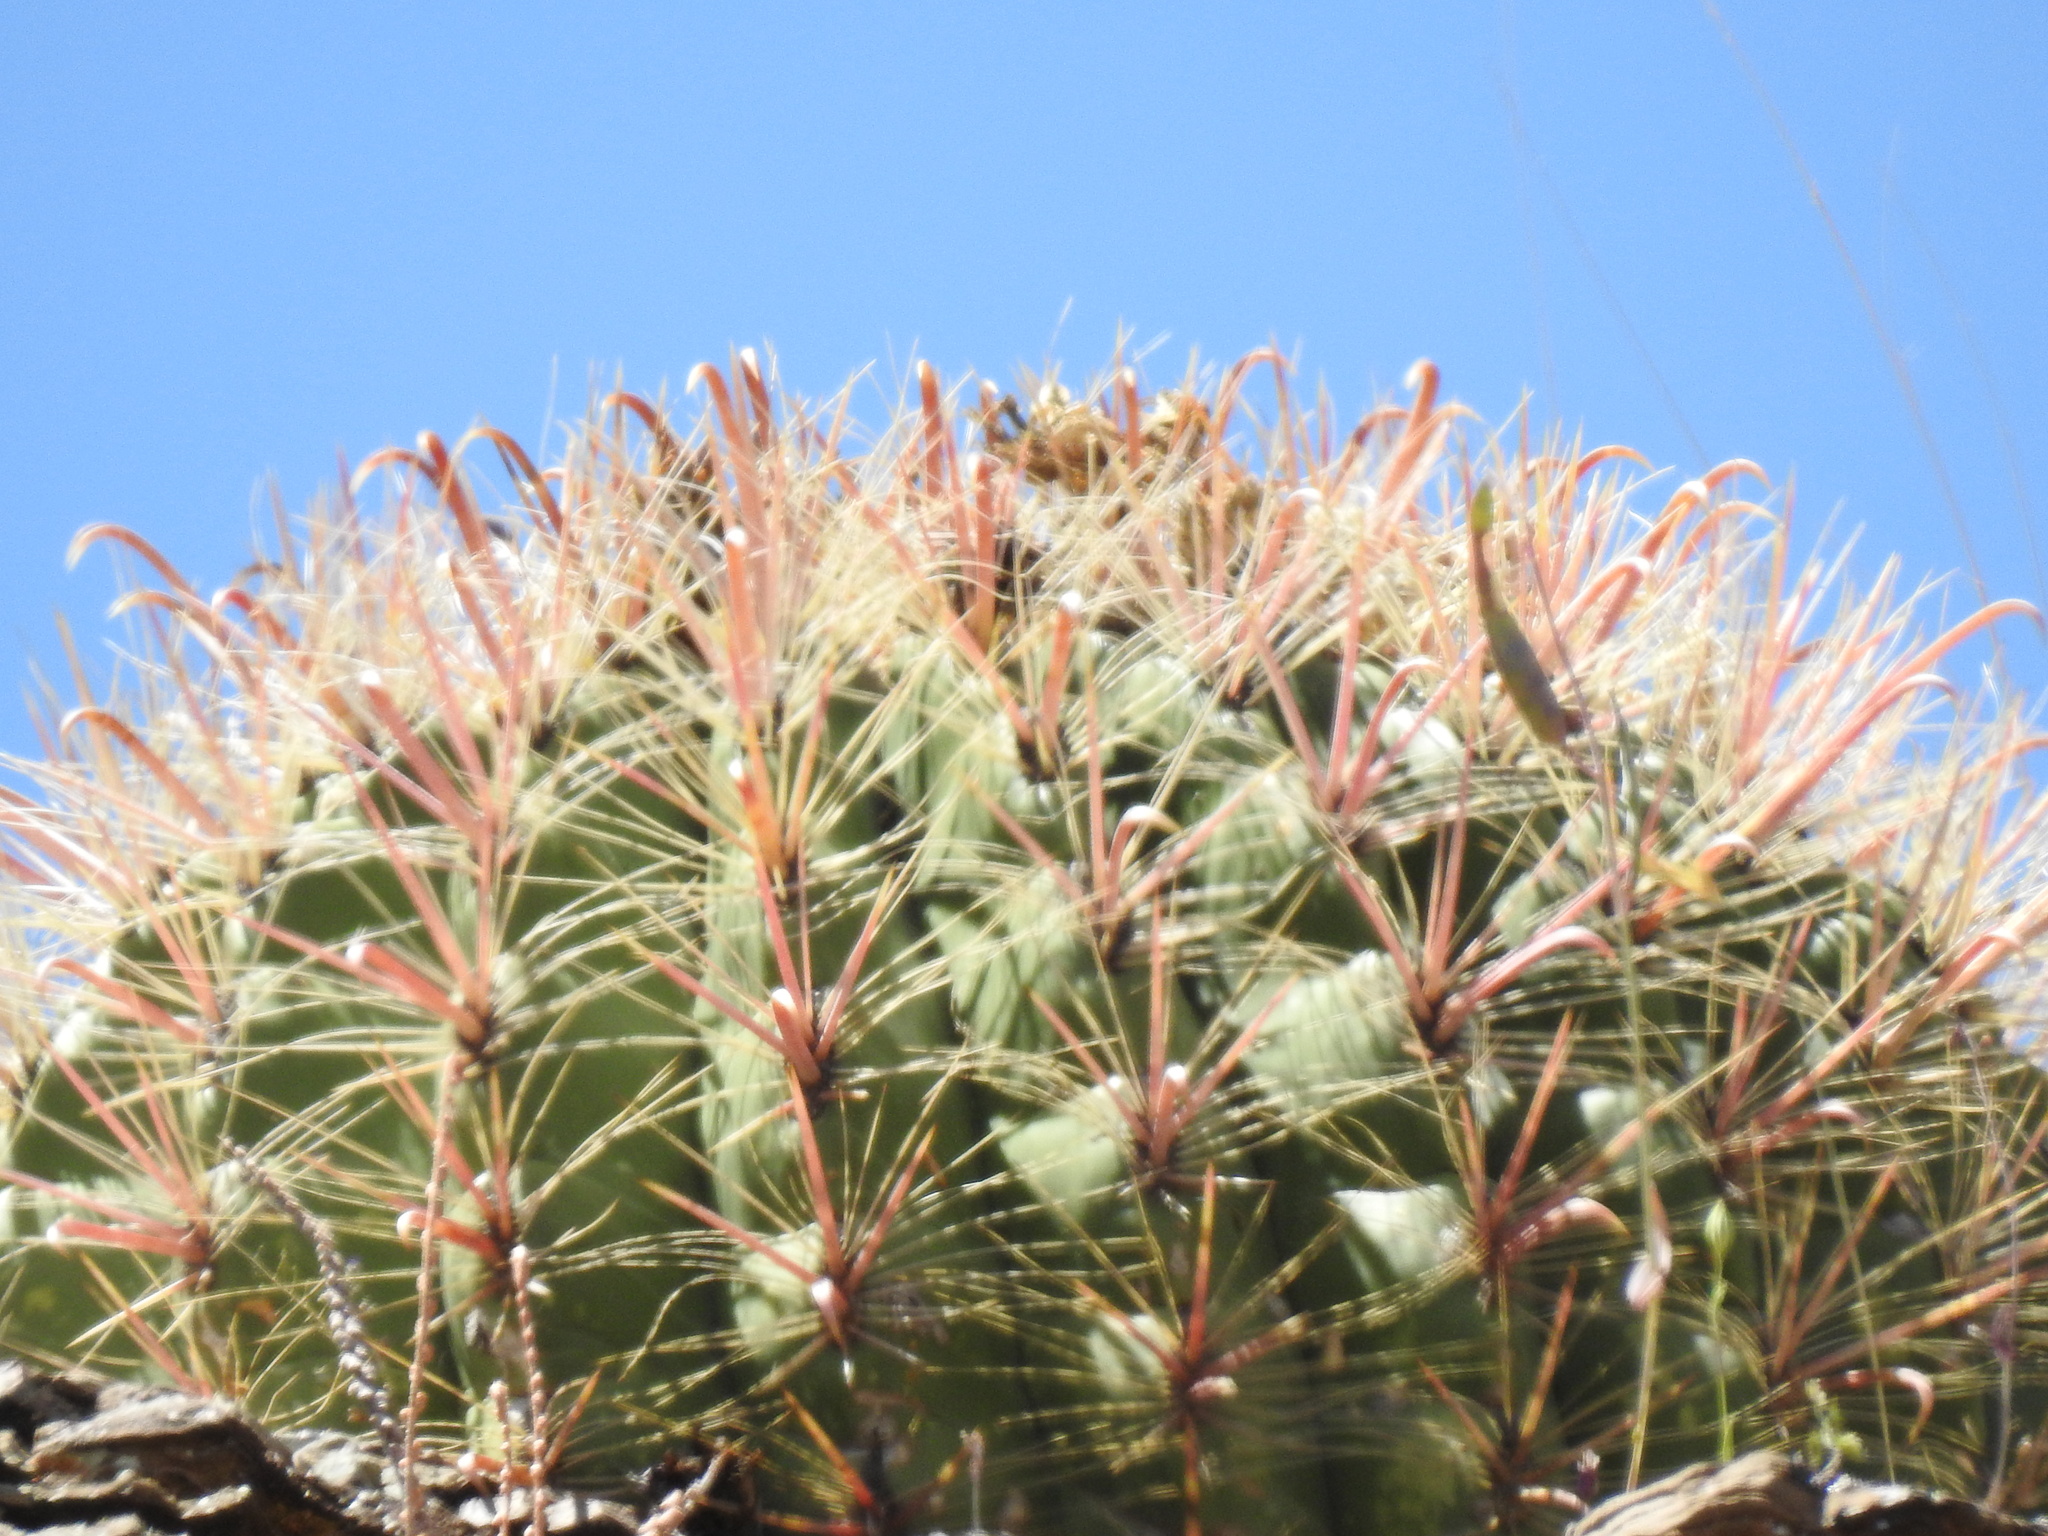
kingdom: Plantae
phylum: Tracheophyta
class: Magnoliopsida
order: Caryophyllales
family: Cactaceae
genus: Ferocactus
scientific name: Ferocactus wislizeni
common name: Candy barrel cactus
